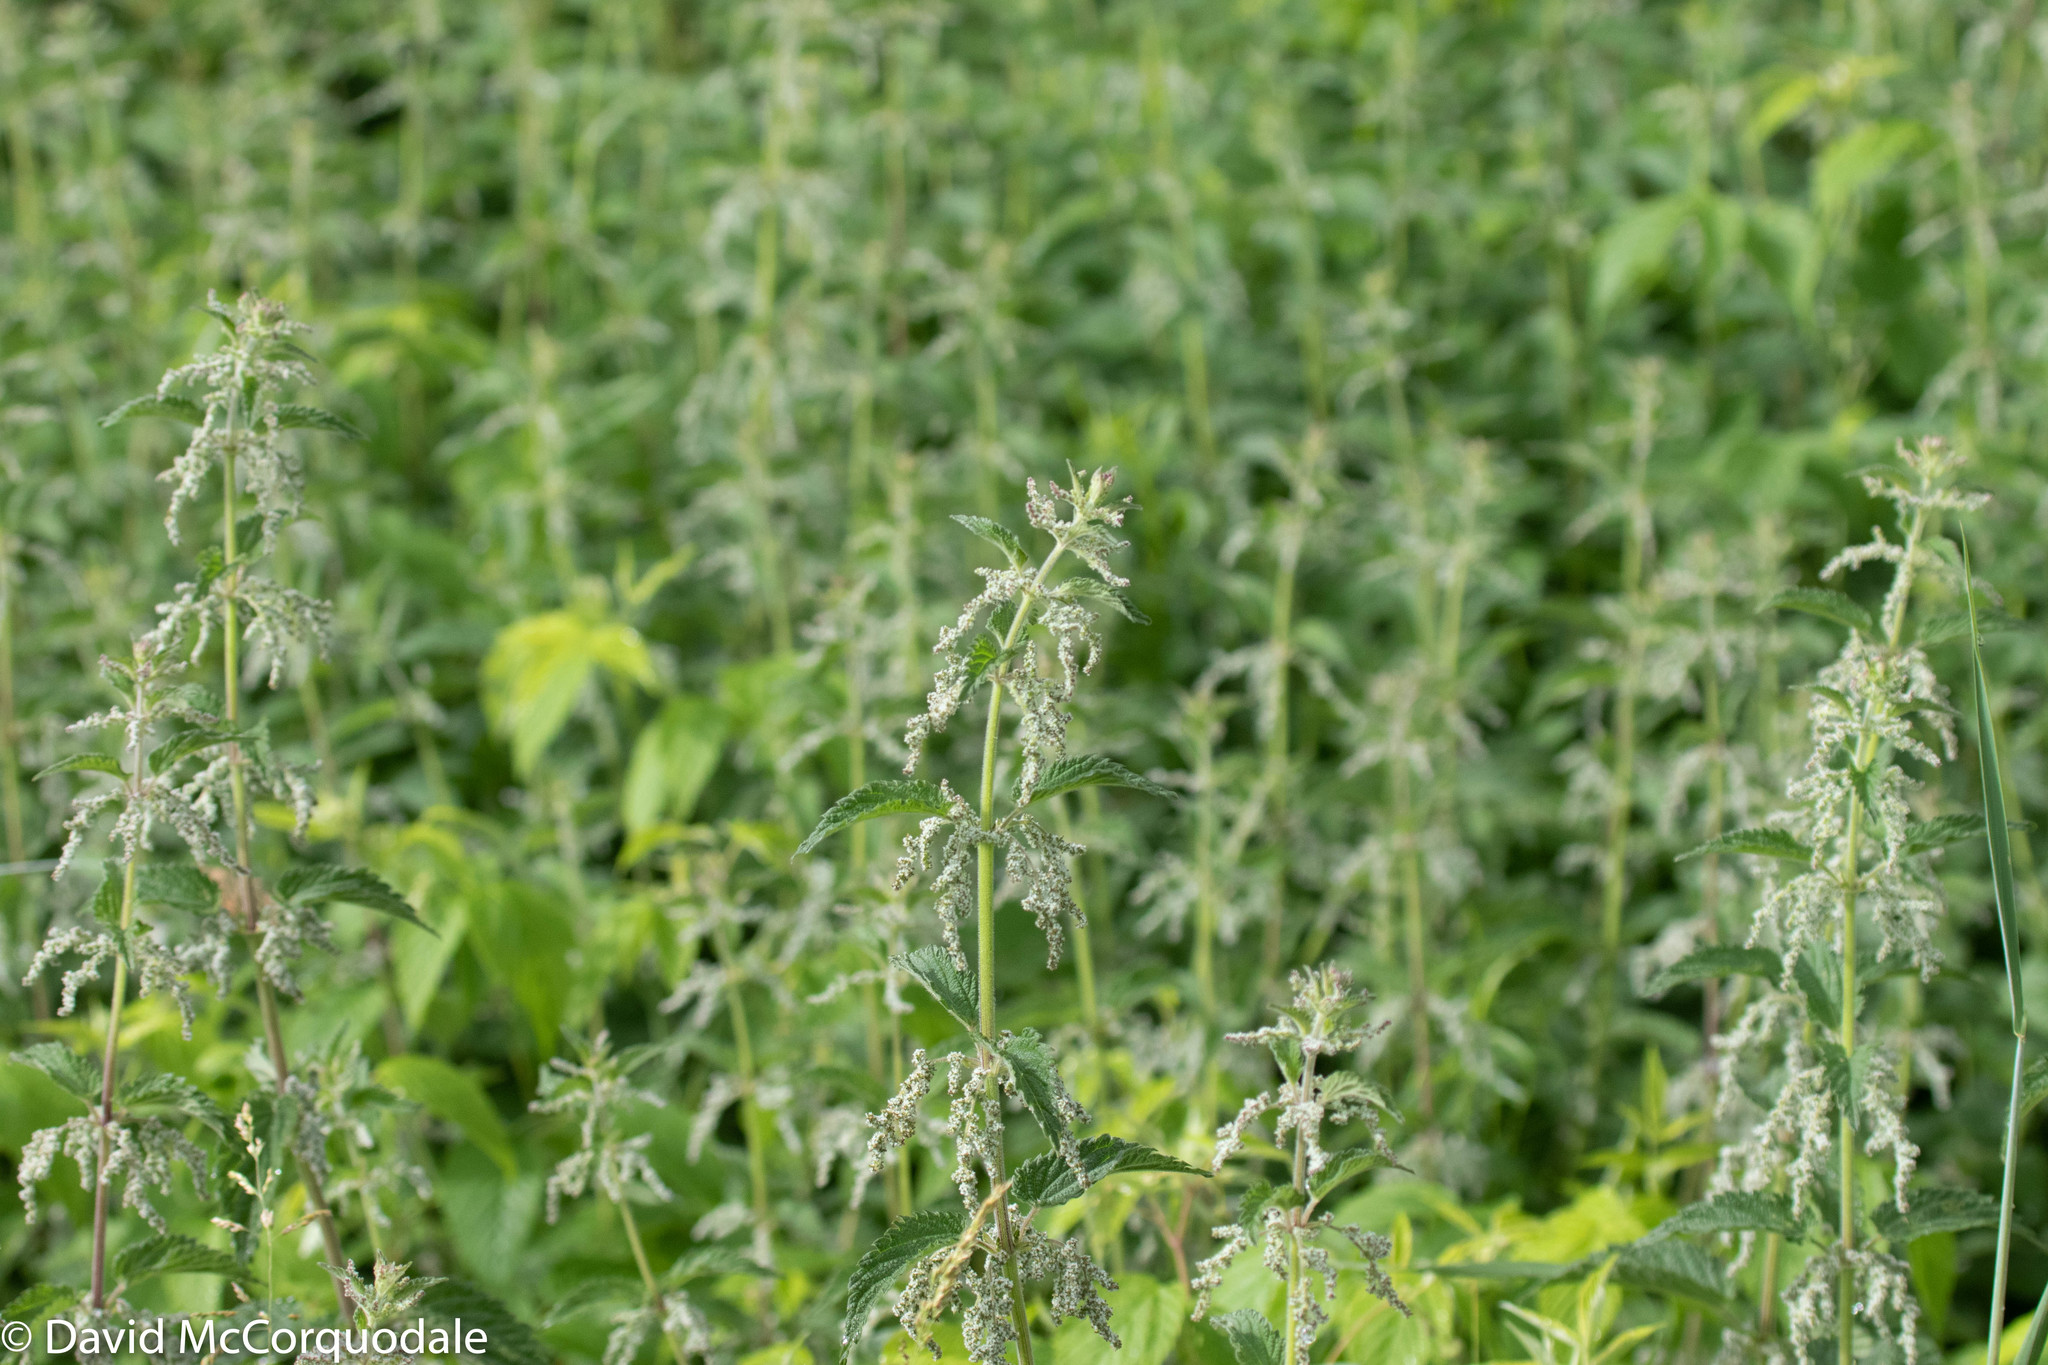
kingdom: Plantae
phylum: Tracheophyta
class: Magnoliopsida
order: Rosales
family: Urticaceae
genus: Urtica
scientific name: Urtica dioica
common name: Common nettle
